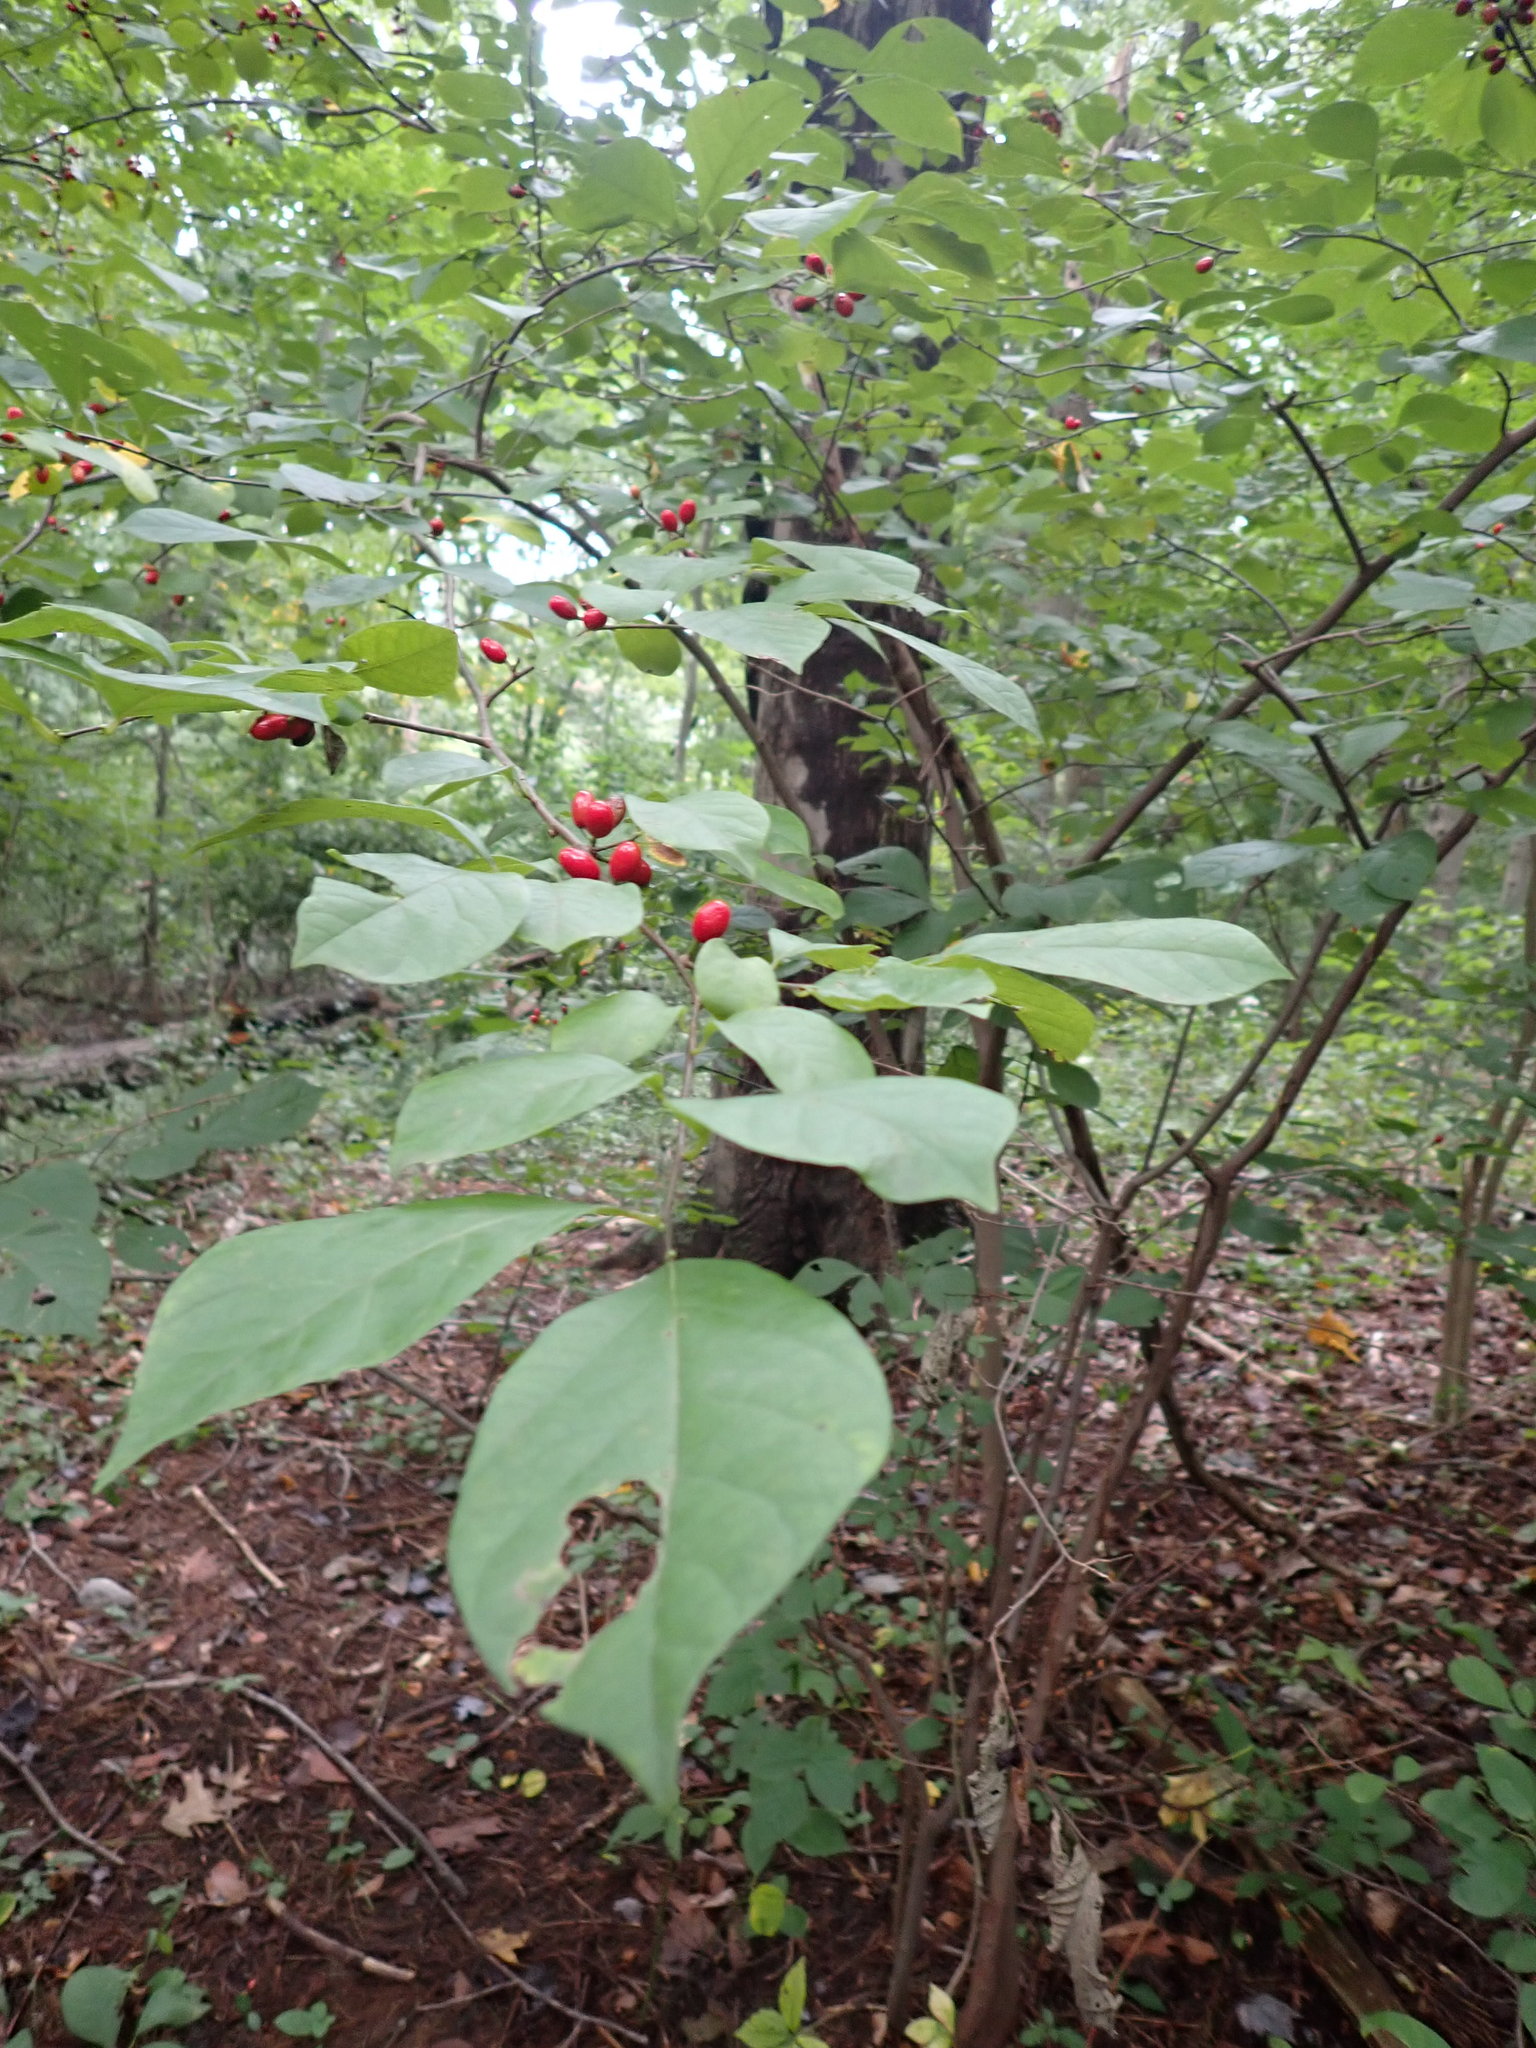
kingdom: Plantae
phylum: Tracheophyta
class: Magnoliopsida
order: Laurales
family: Lauraceae
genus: Lindera
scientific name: Lindera benzoin
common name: Spicebush
